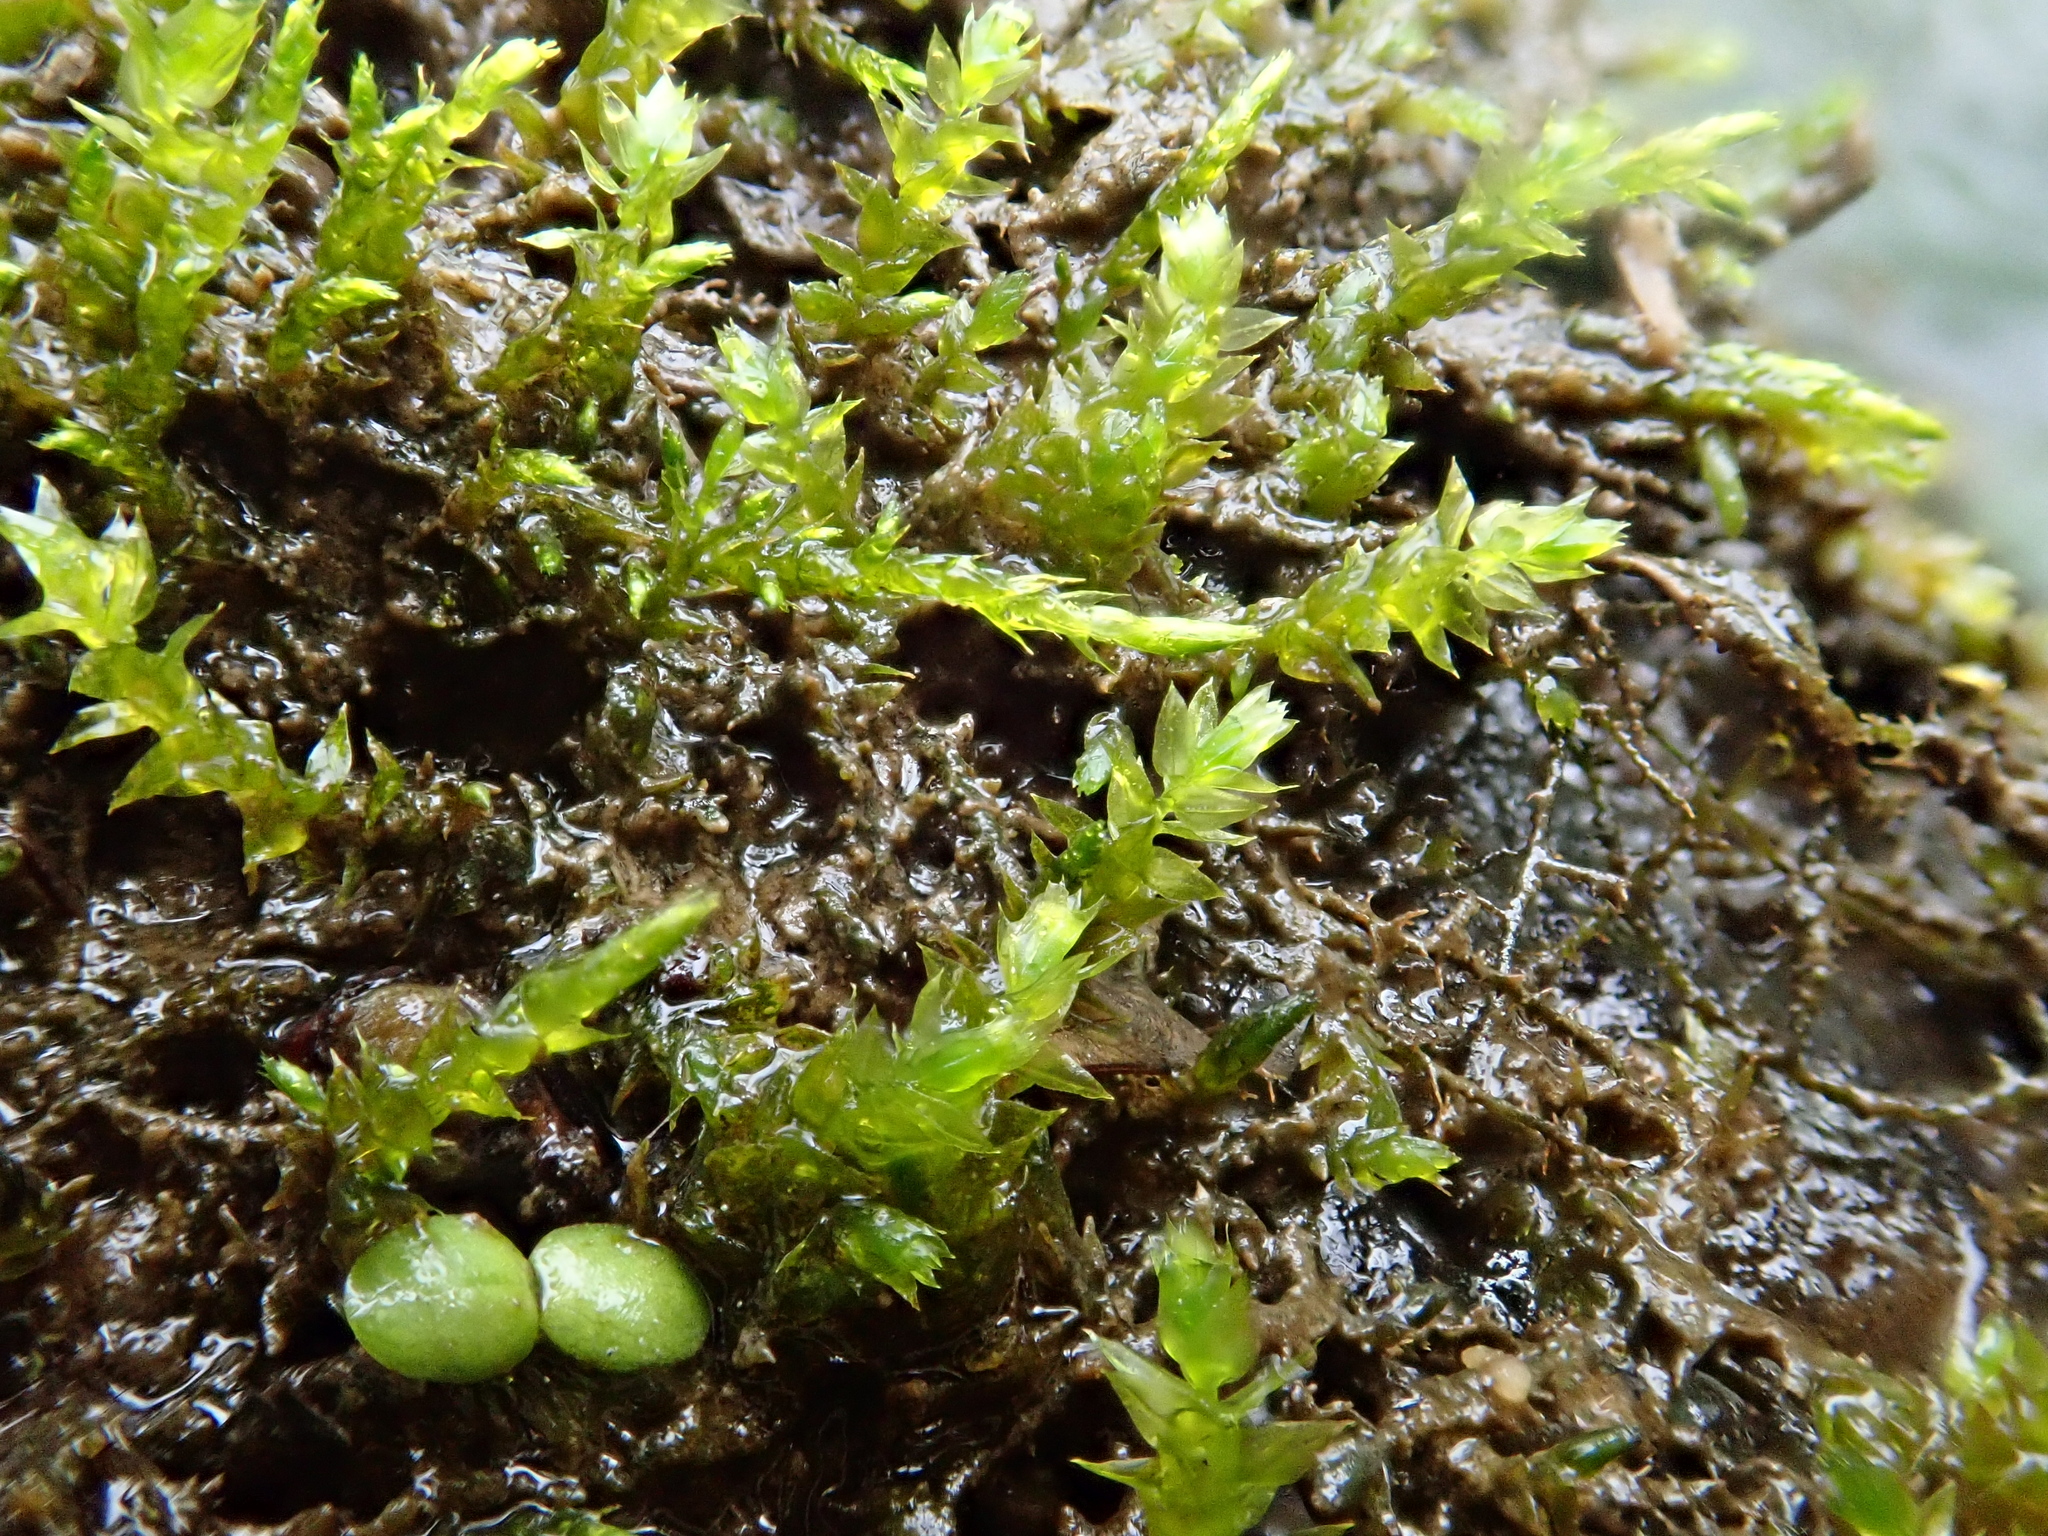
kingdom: Plantae
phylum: Bryophyta
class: Bryopsida
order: Hypnales
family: Brachytheciaceae
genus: Rhynchostegium
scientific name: Rhynchostegium riparioides
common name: Platyhypnidium moss
